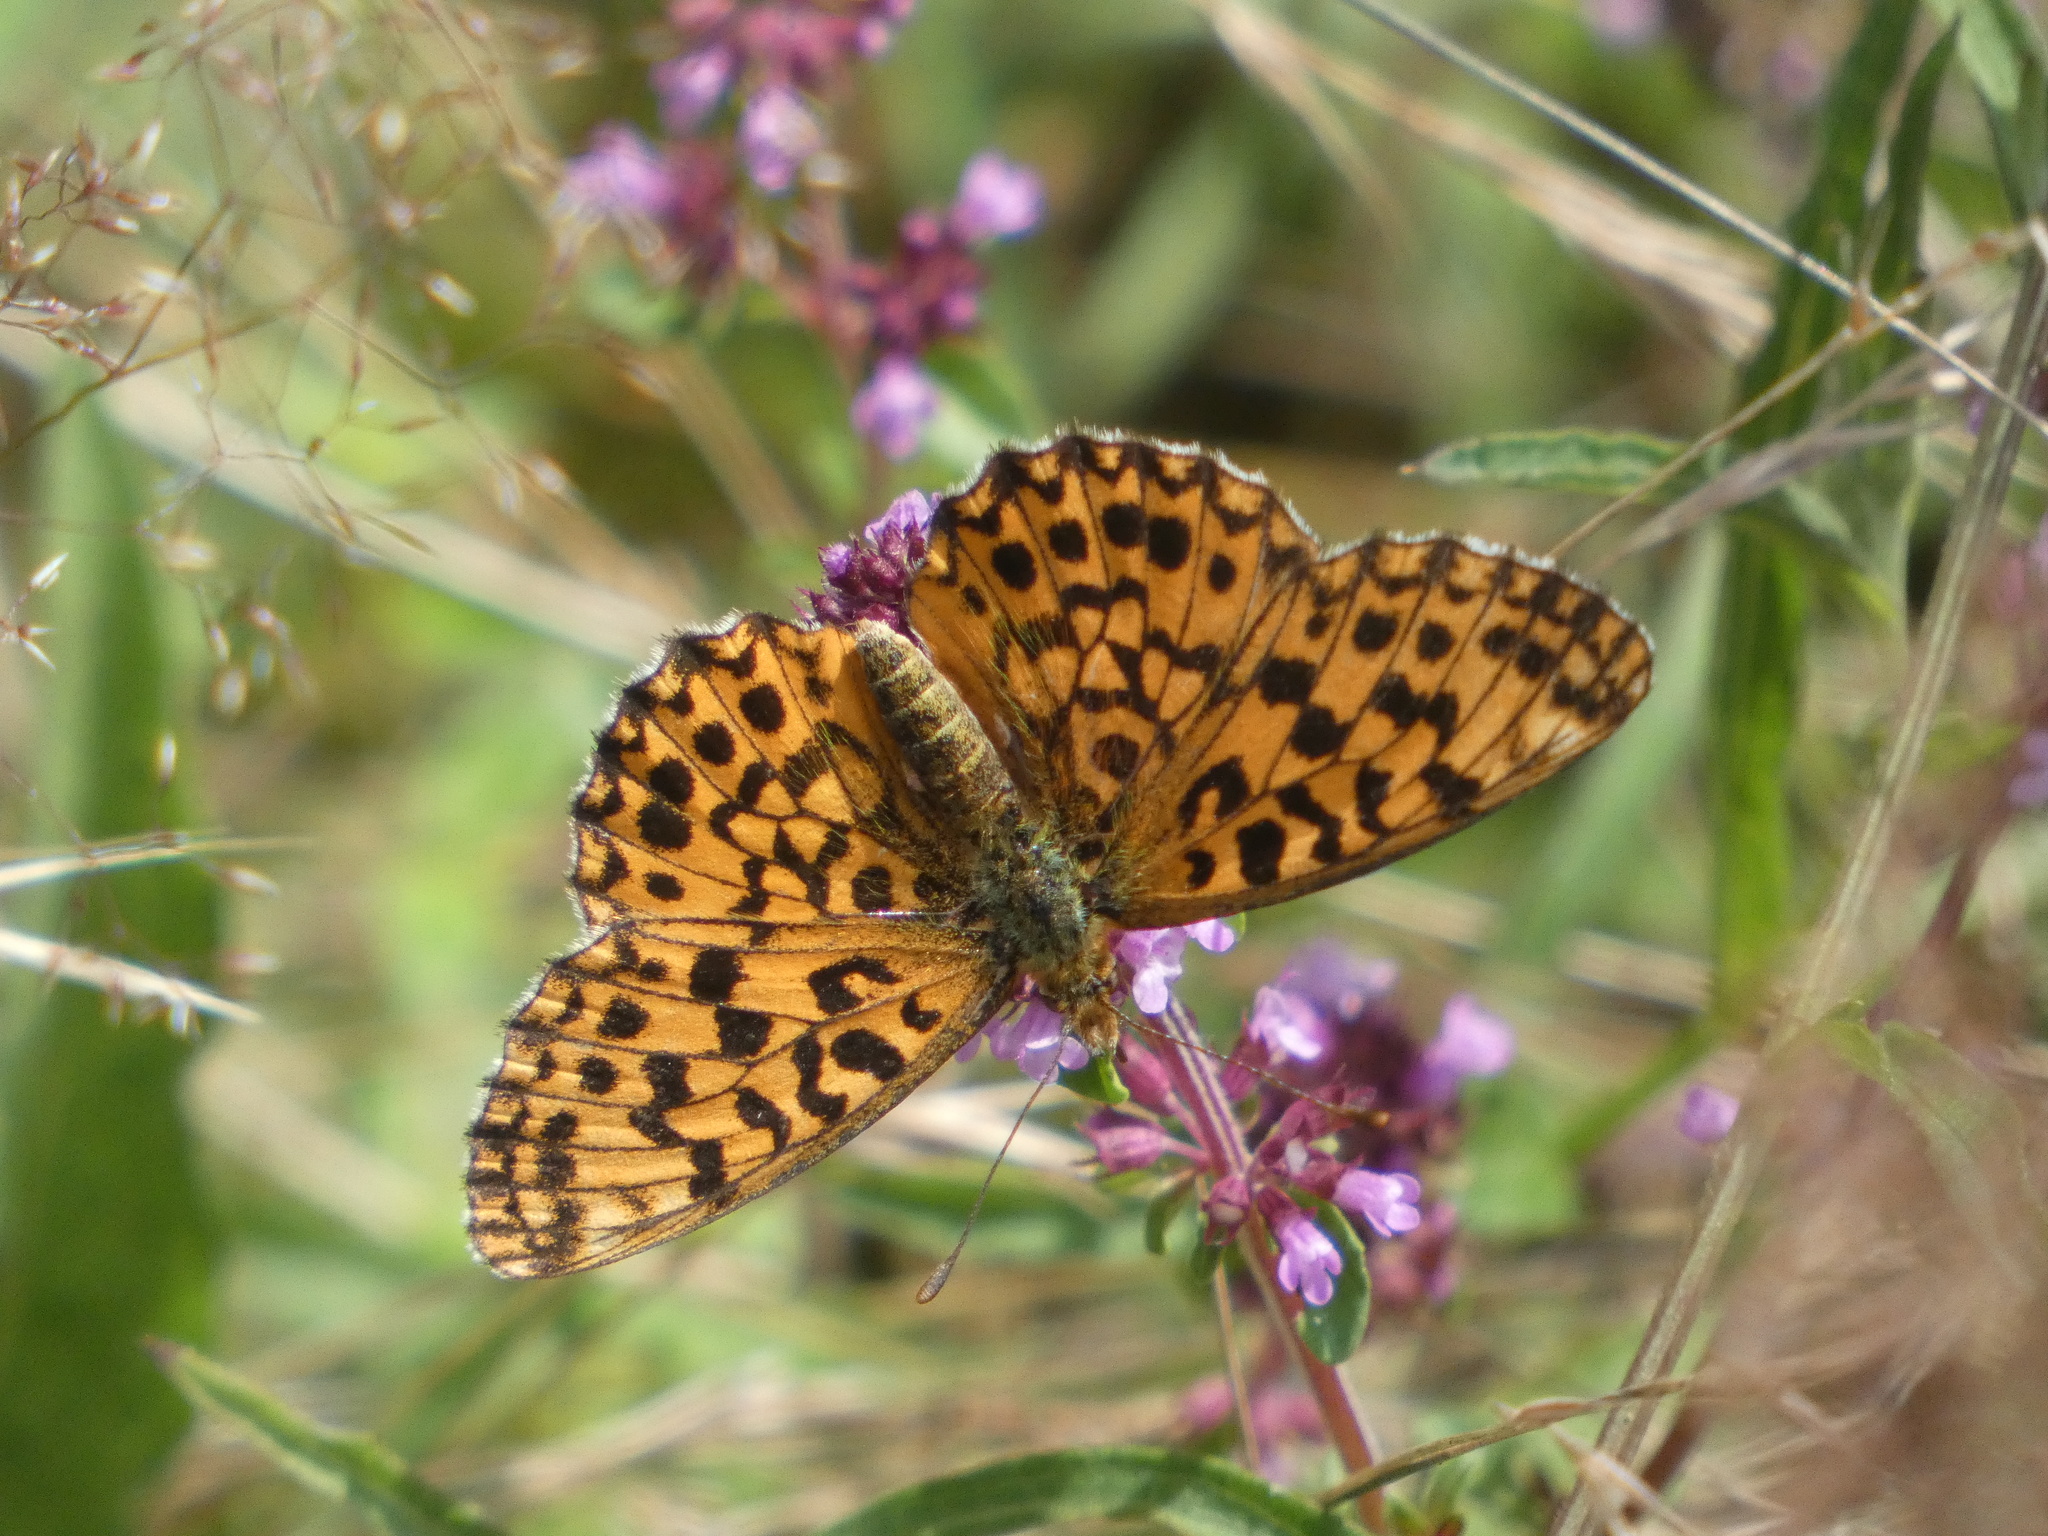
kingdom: Animalia
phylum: Arthropoda
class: Insecta
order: Lepidoptera
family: Nymphalidae
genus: Boloria
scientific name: Boloria dia
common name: Weaver's fritillary
